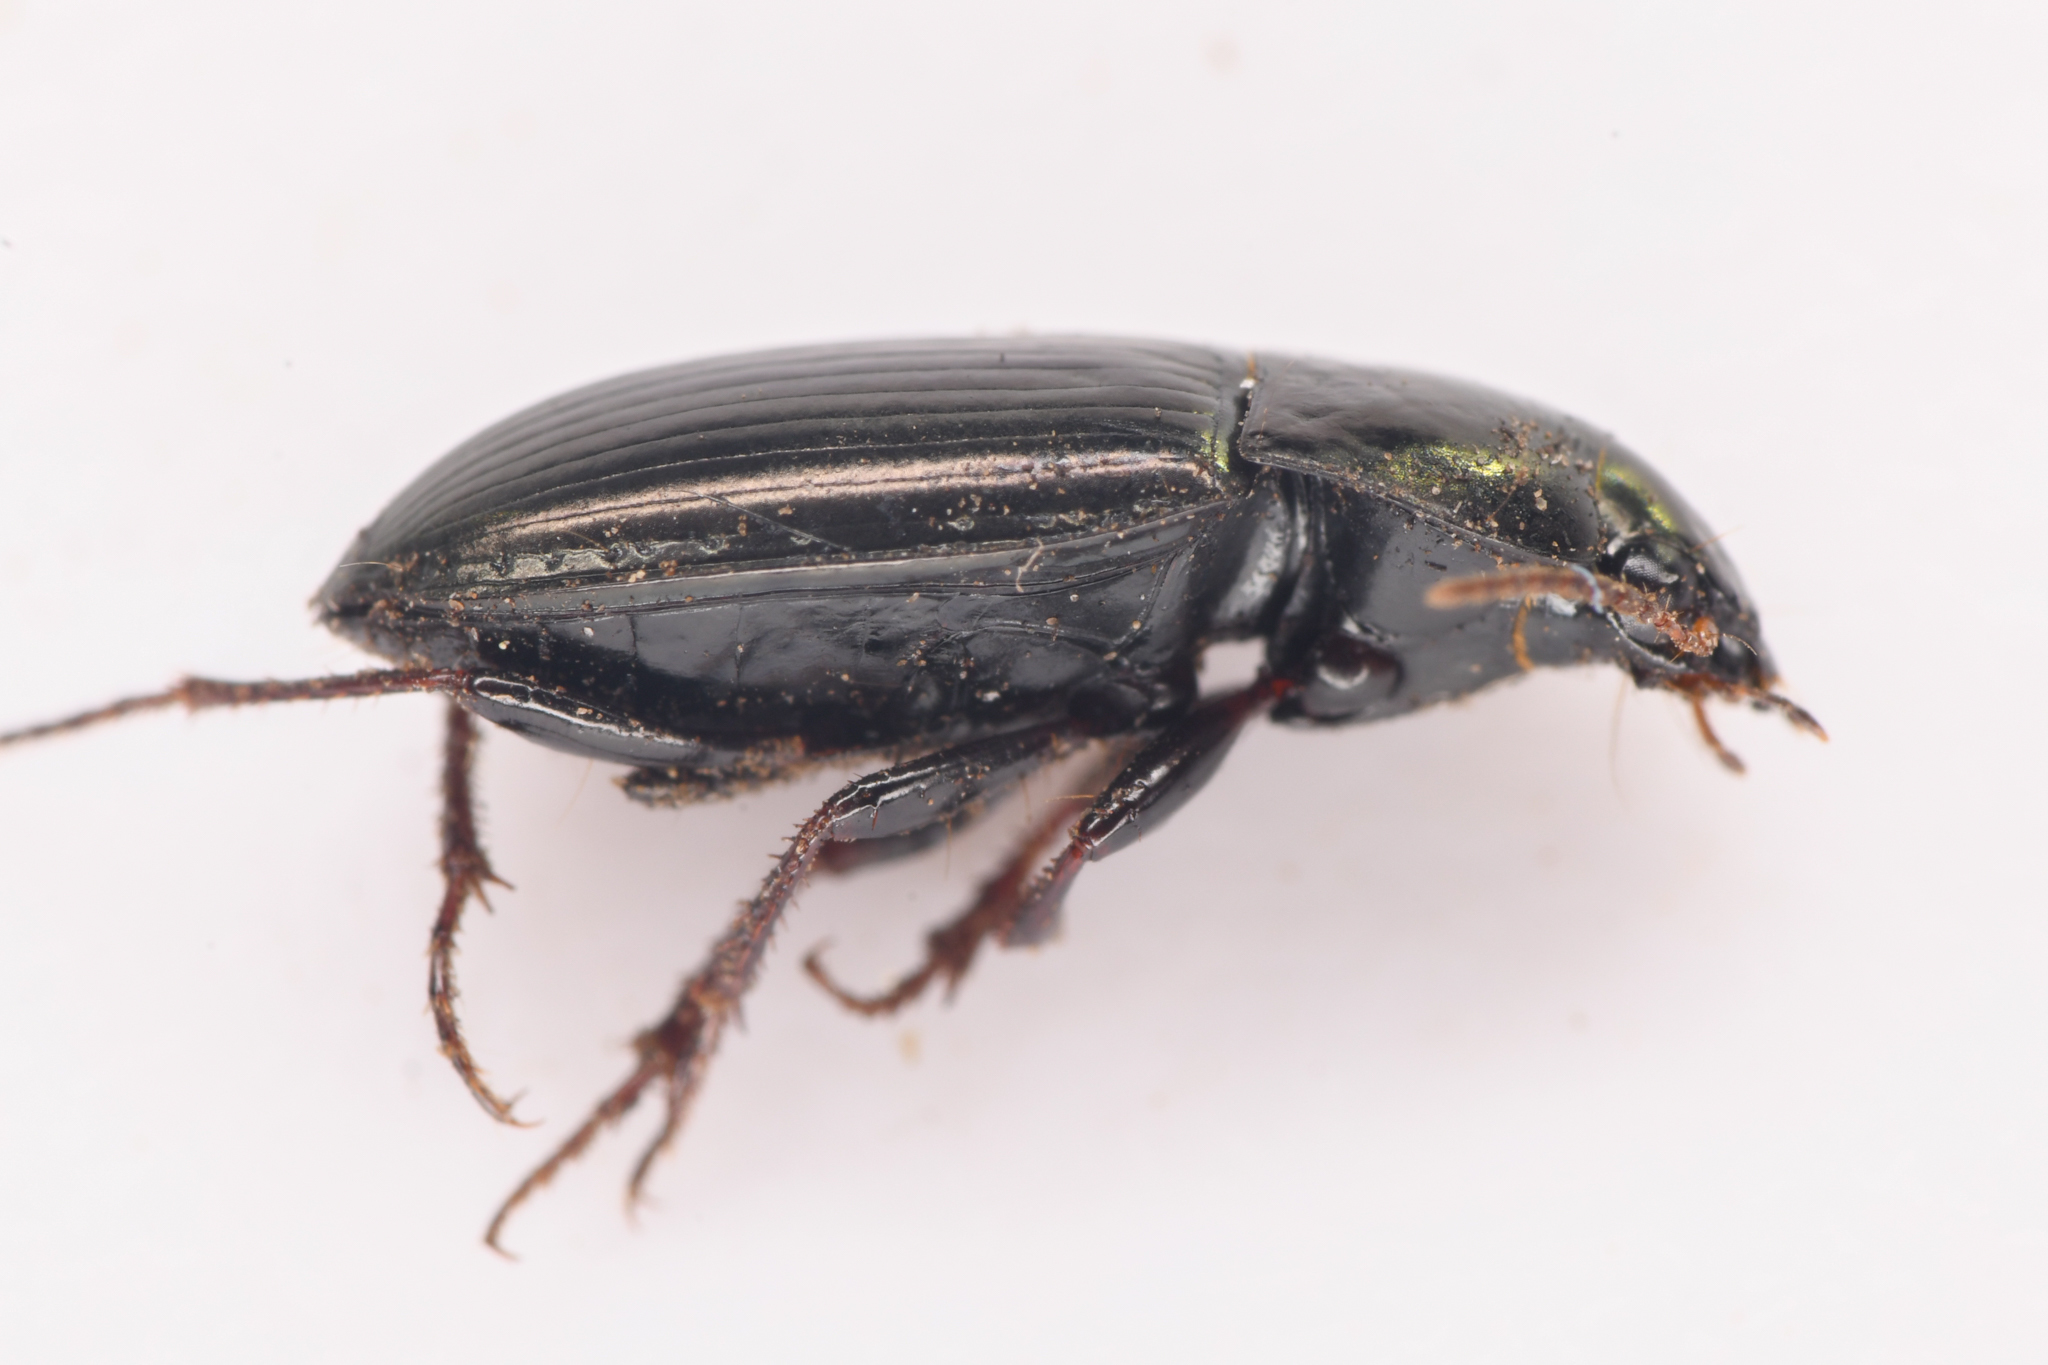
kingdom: Animalia
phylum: Arthropoda
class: Insecta
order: Coleoptera
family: Carabidae
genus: Amara
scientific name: Amara scitula
